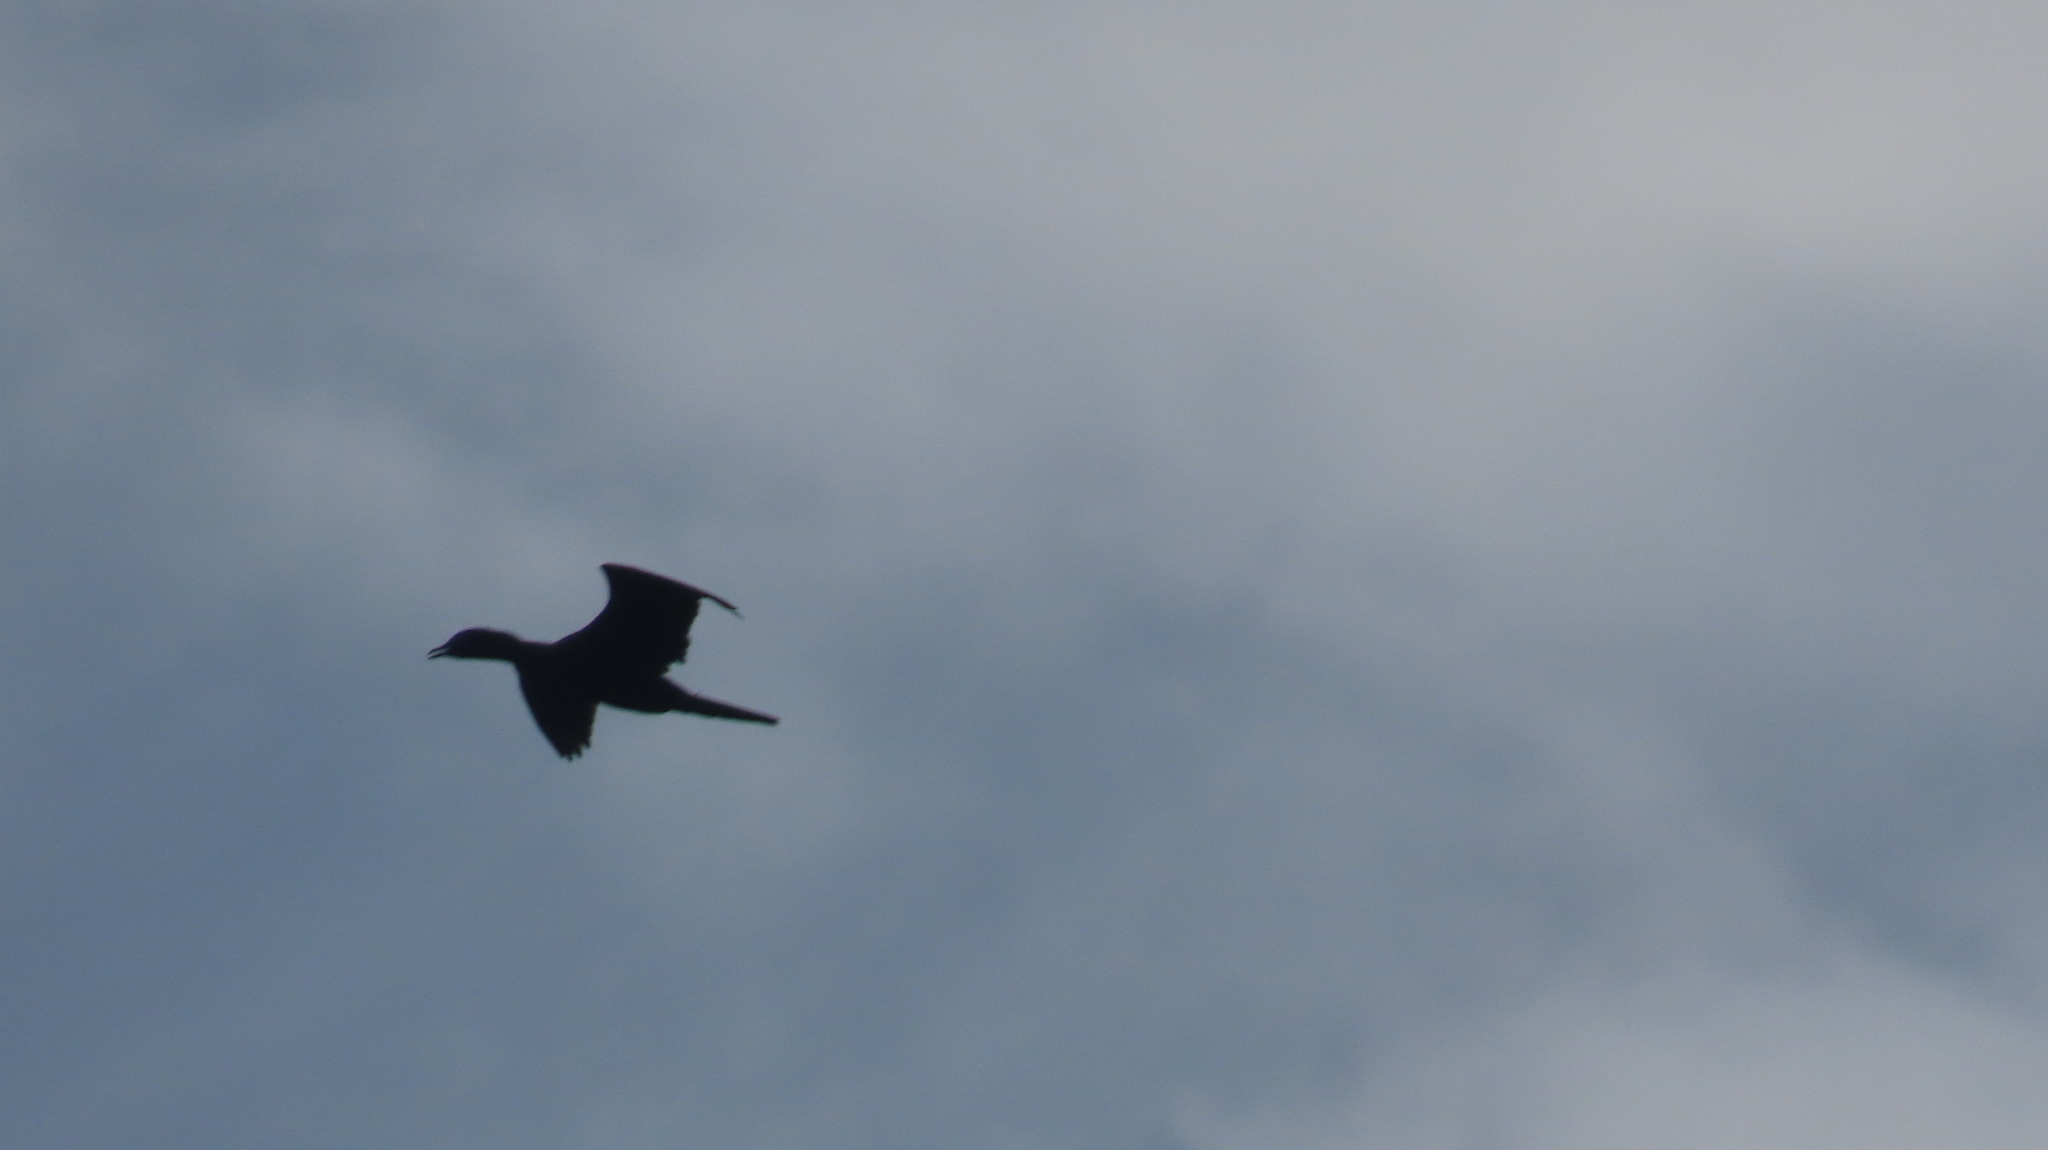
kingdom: Animalia
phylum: Chordata
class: Aves
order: Suliformes
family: Phalacrocoracidae
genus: Microcarbo
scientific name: Microcarbo niger
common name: Little cormorant
